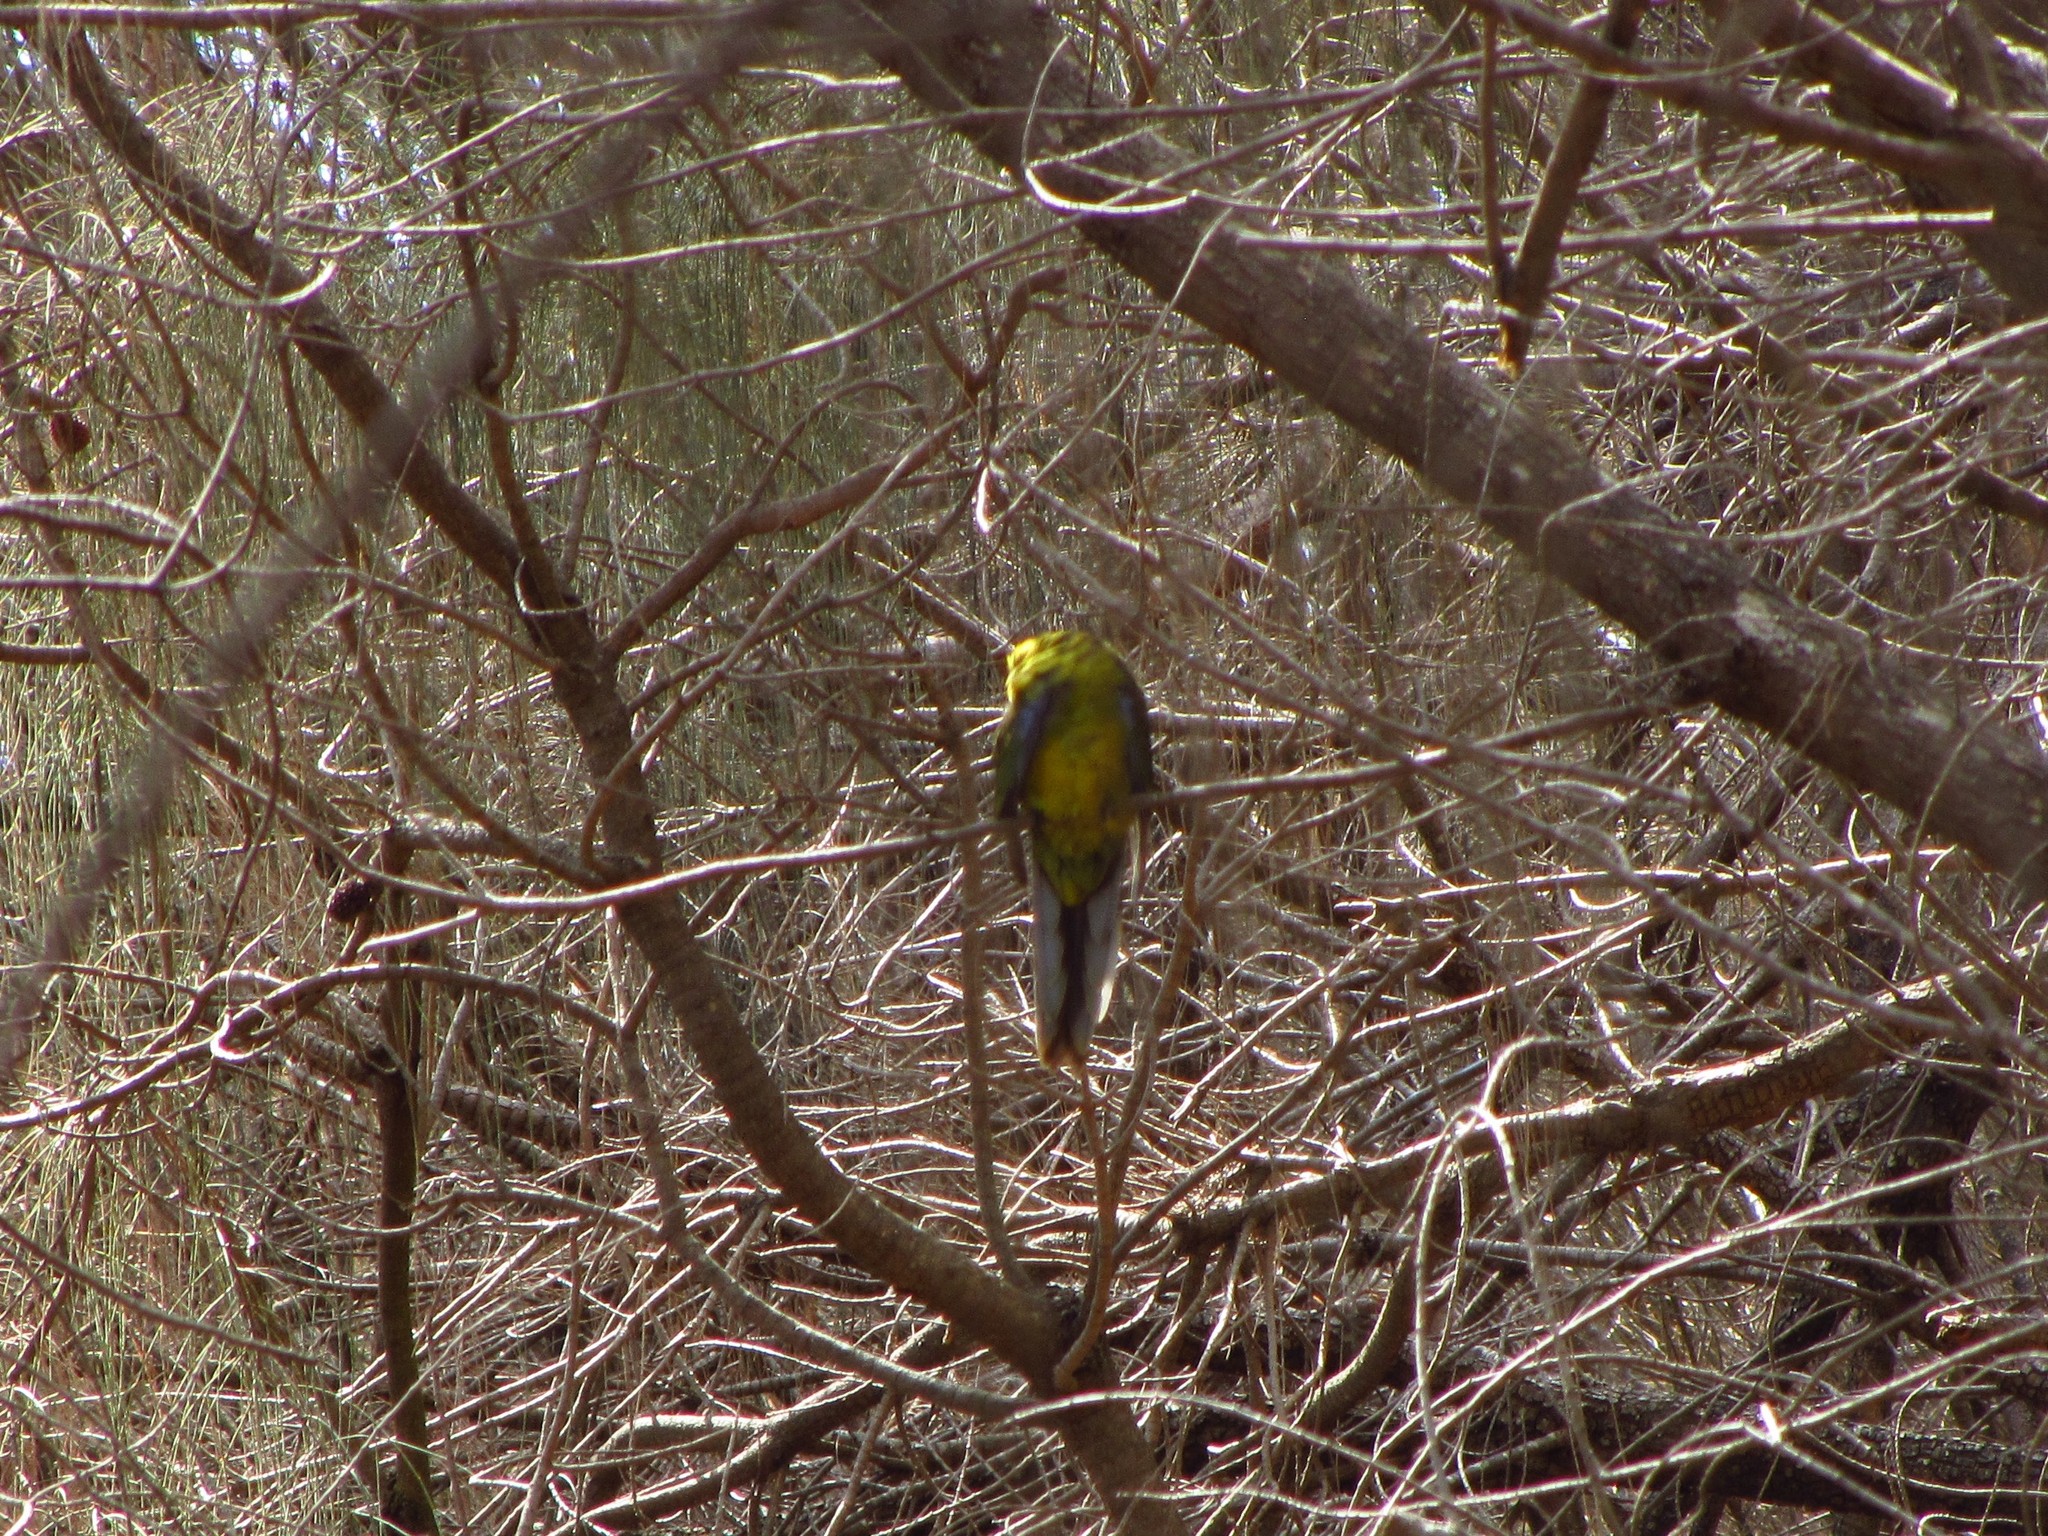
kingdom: Animalia
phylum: Chordata
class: Aves
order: Psittaciformes
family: Psittacidae
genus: Platycercus
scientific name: Platycercus caledonicus
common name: Green rosella
